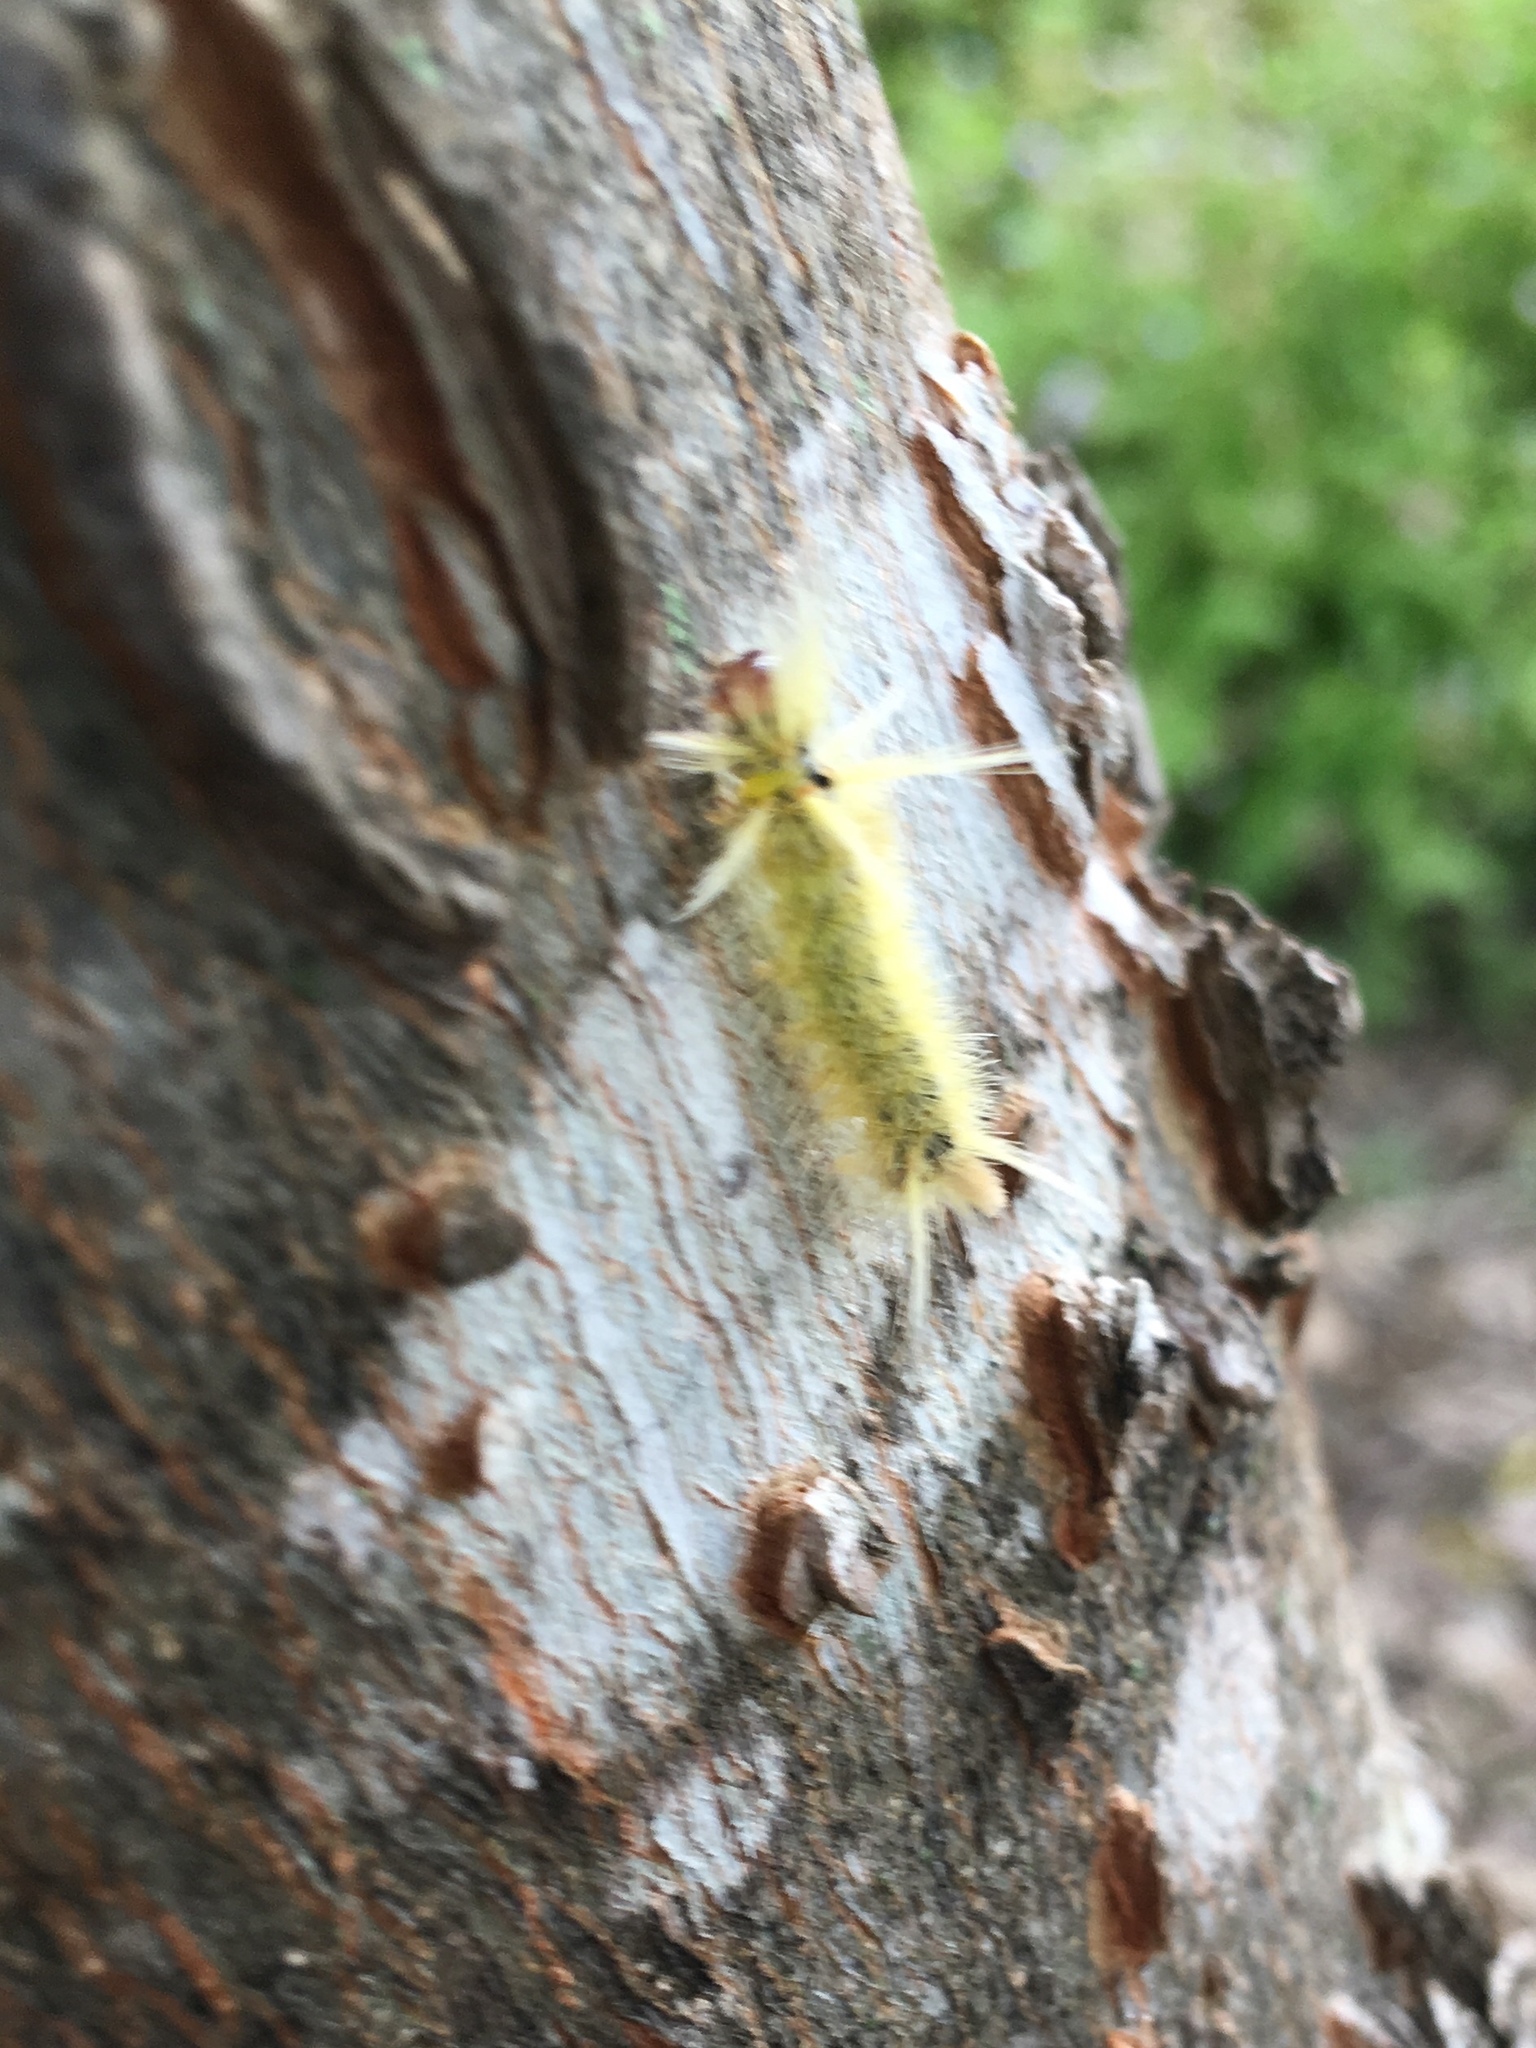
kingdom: Animalia
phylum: Arthropoda
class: Insecta
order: Lepidoptera
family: Erebidae
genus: Halysidota
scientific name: Halysidota schausi
